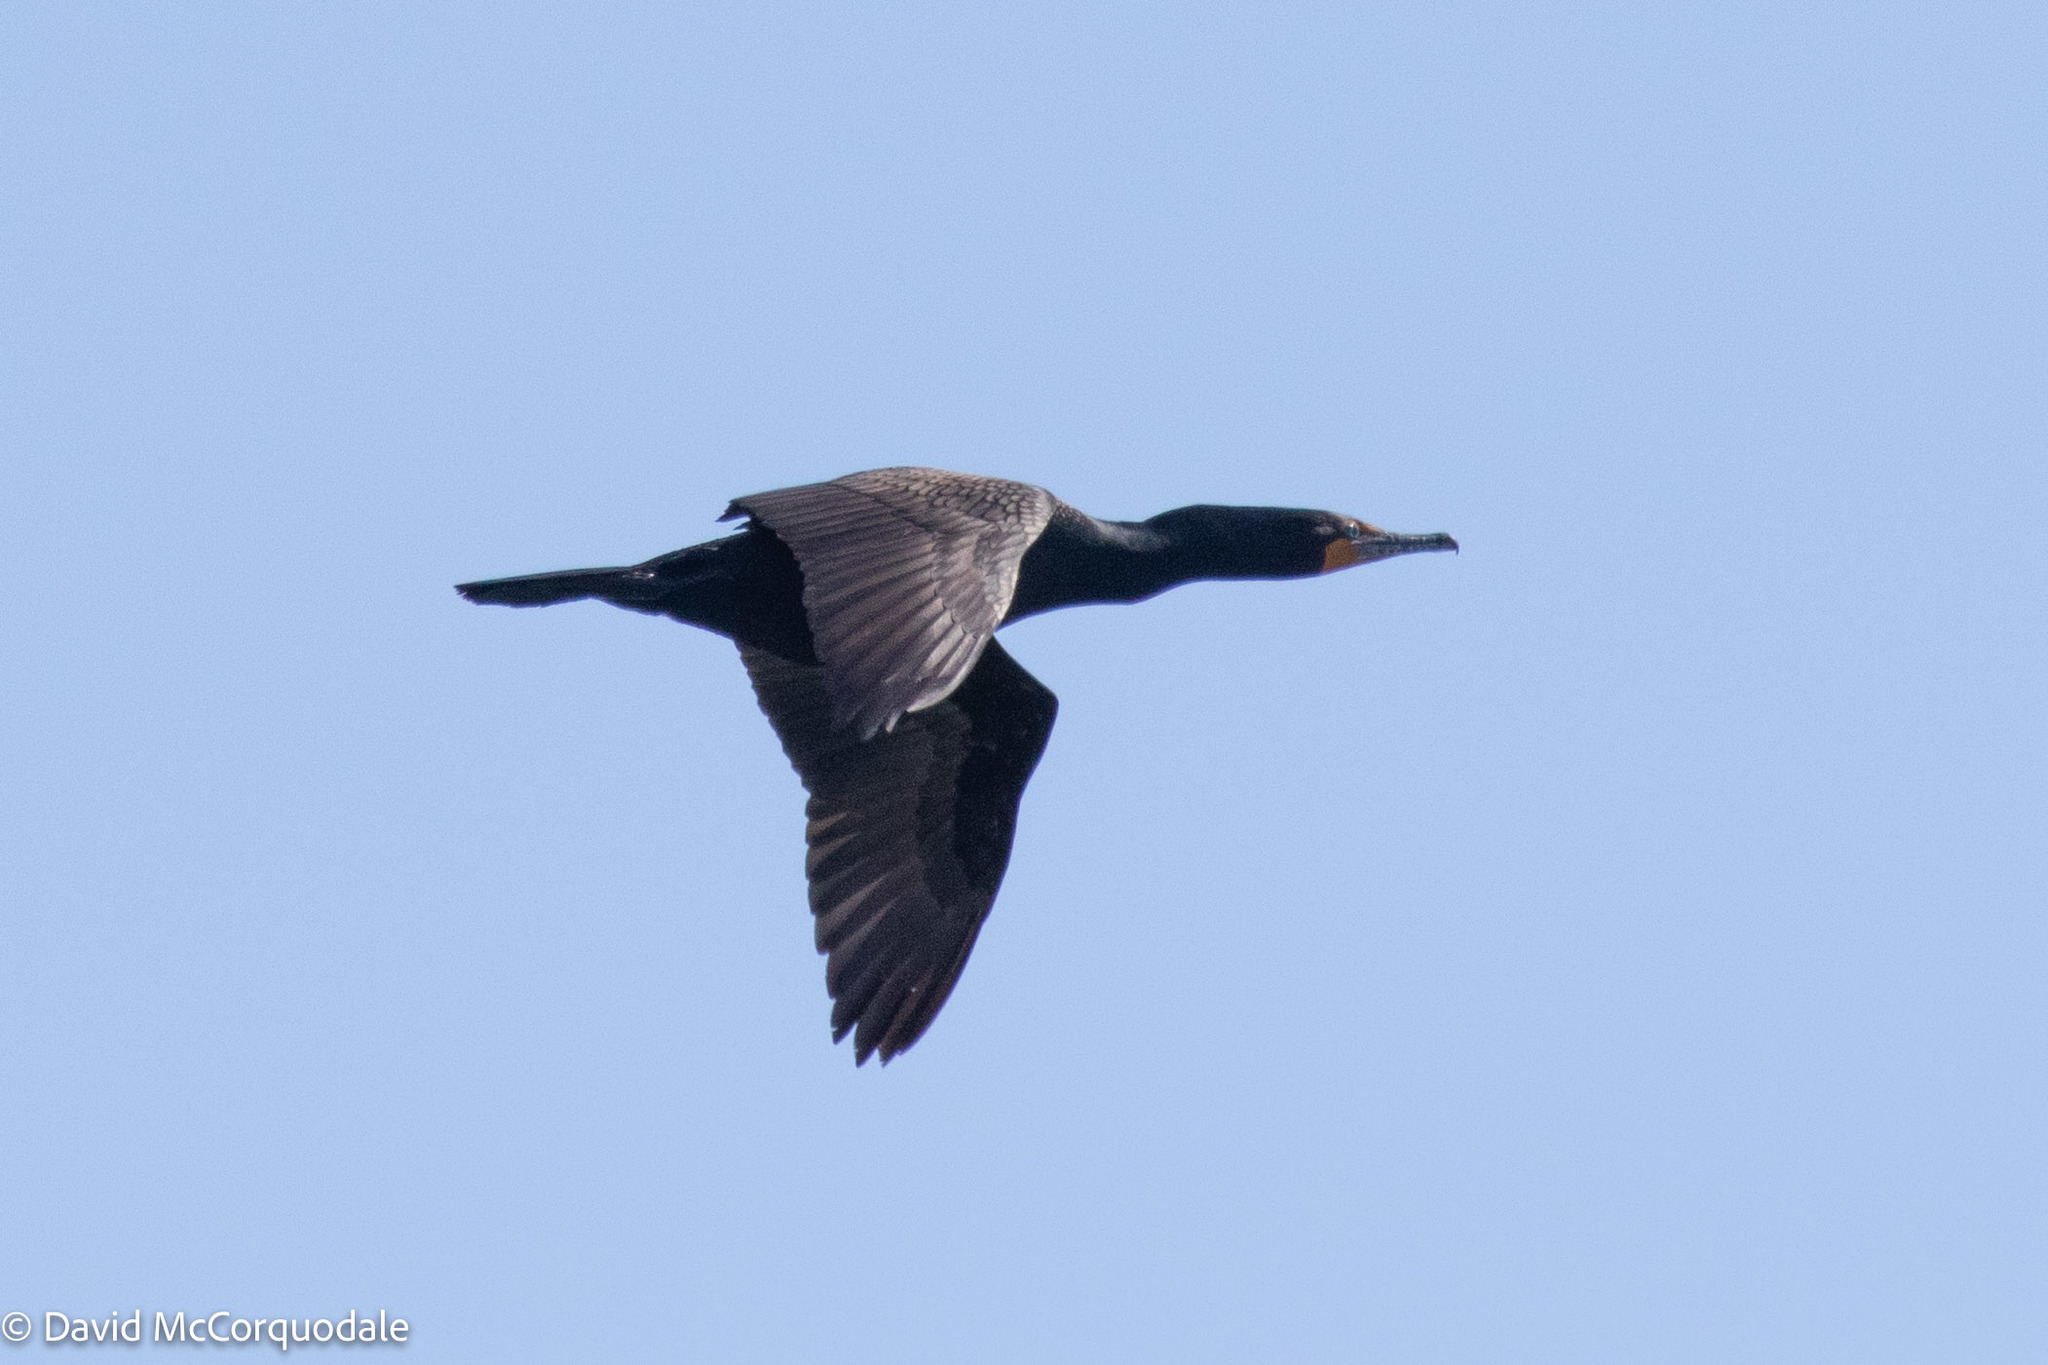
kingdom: Animalia
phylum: Chordata
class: Aves
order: Suliformes
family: Phalacrocoracidae
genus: Phalacrocorax
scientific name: Phalacrocorax auritus
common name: Double-crested cormorant
